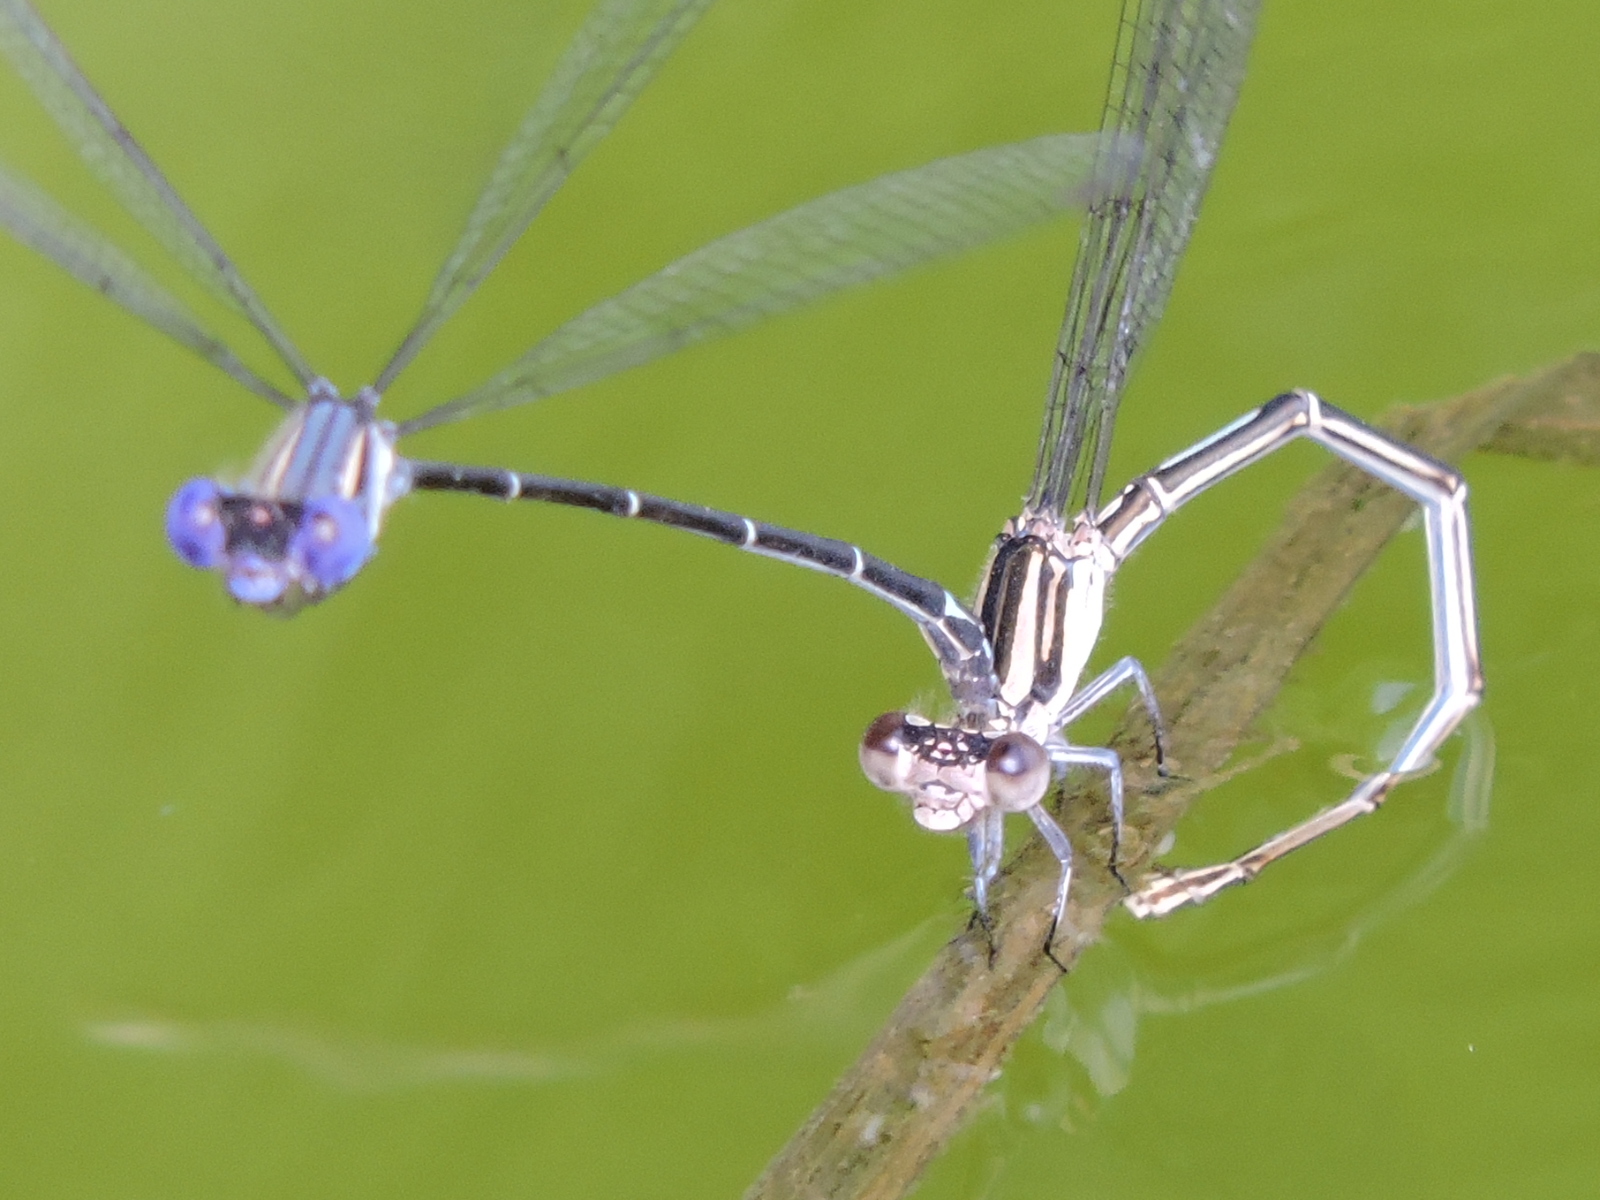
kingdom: Animalia
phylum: Arthropoda
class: Insecta
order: Odonata
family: Coenagrionidae
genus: Argia
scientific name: Argia translata
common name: Dusky dancer
